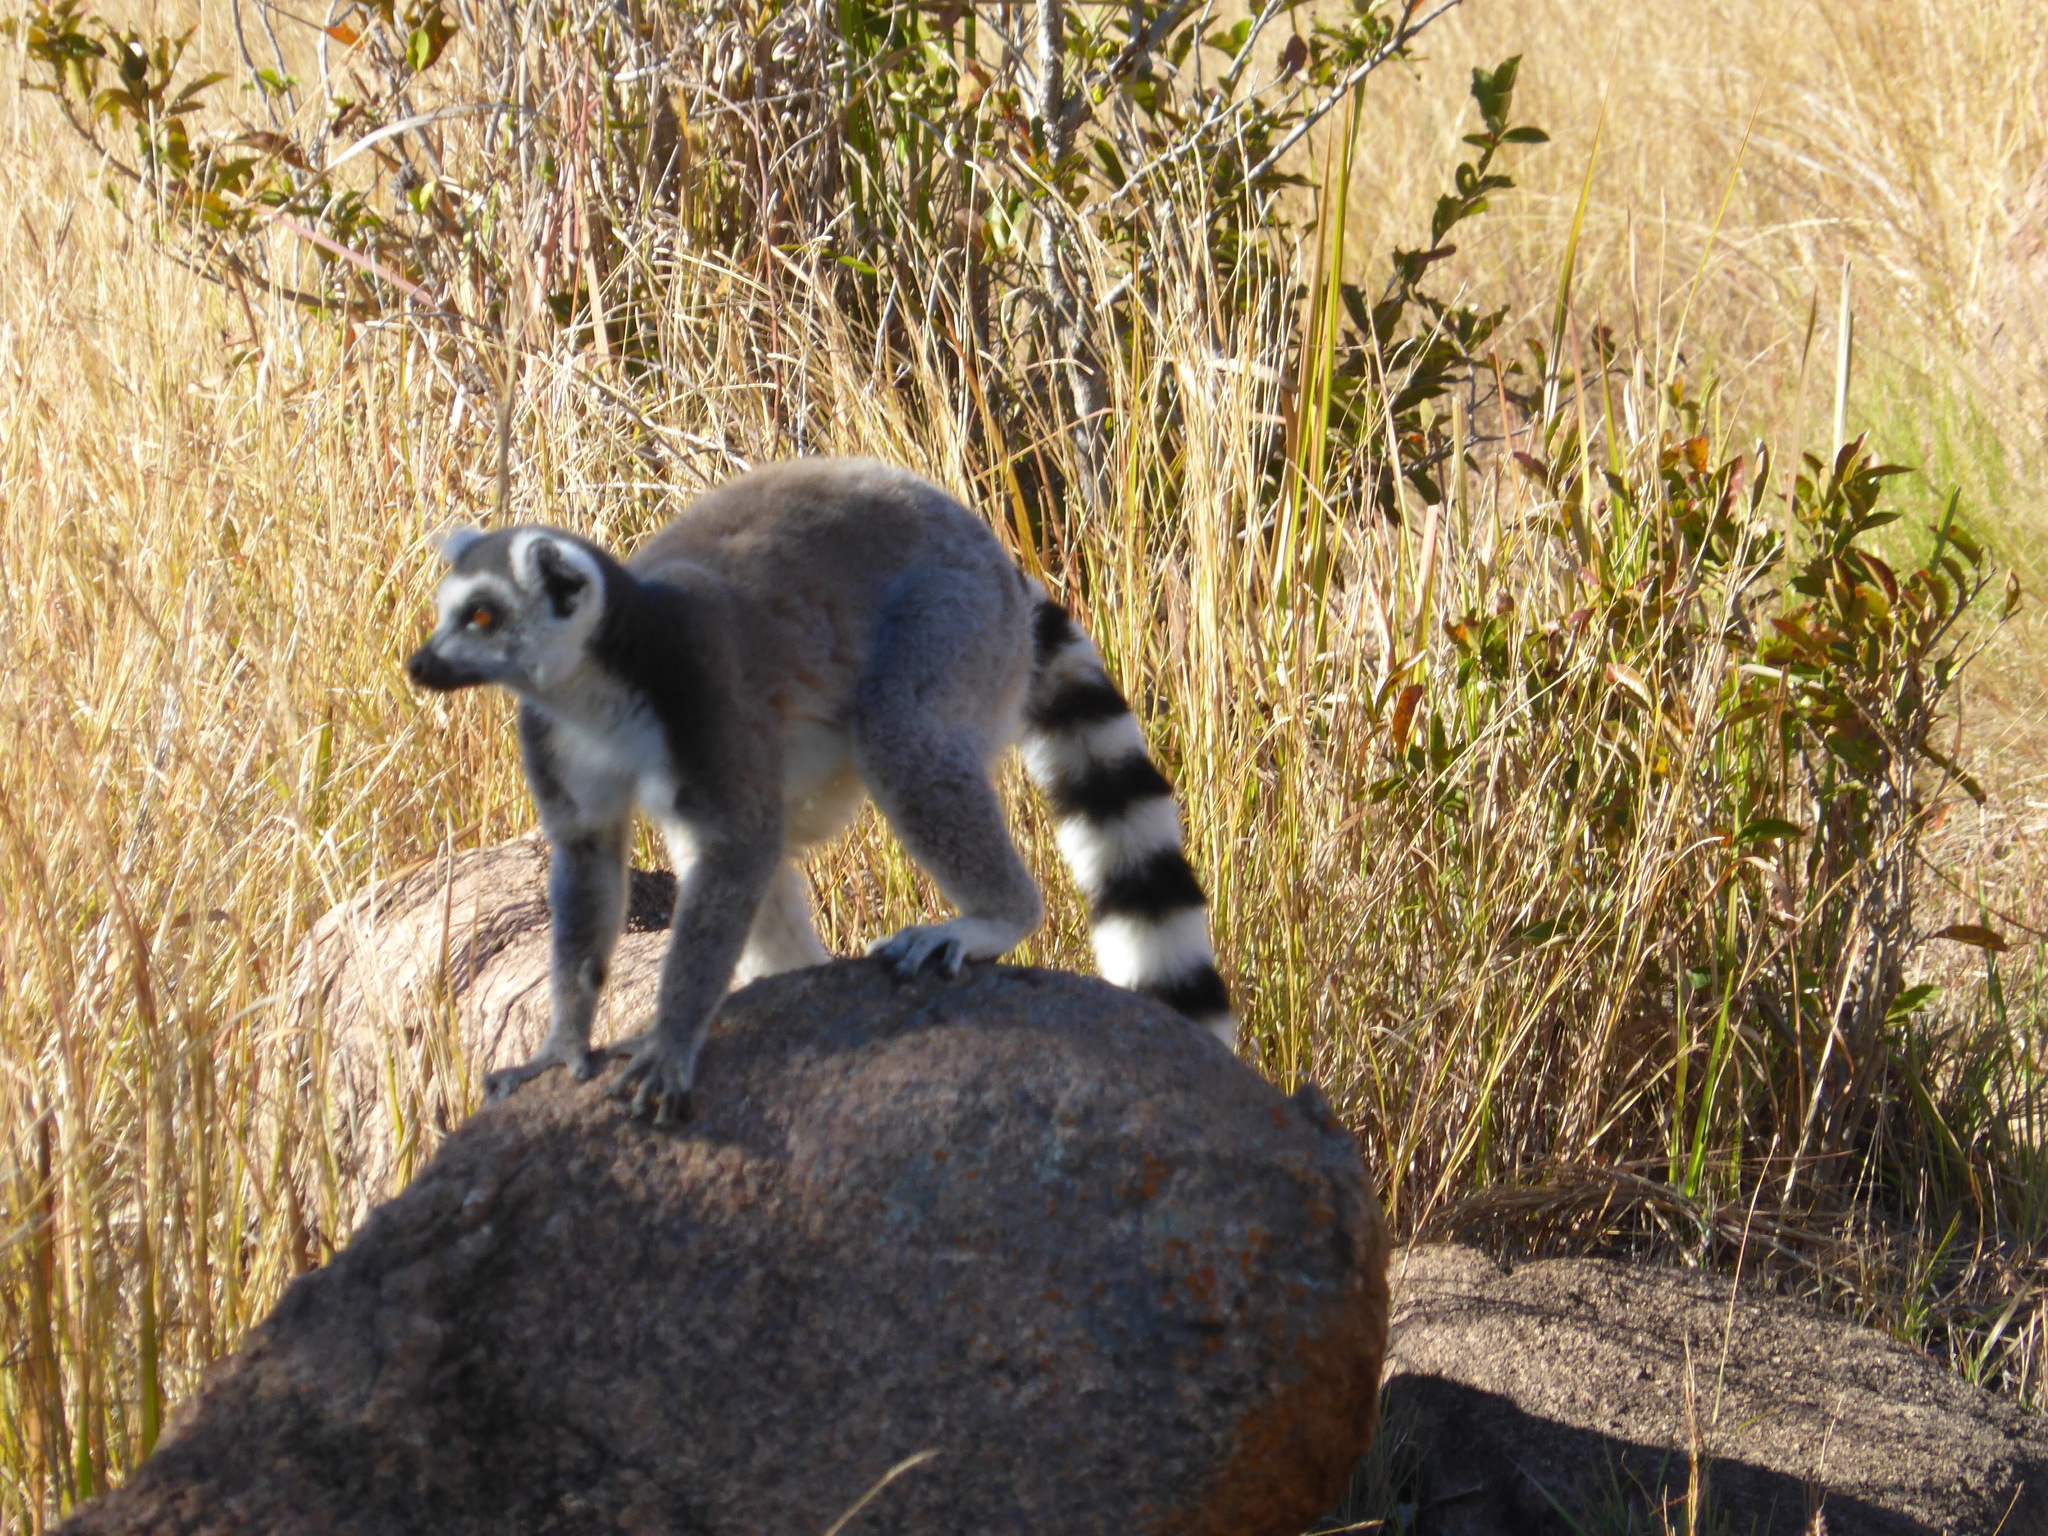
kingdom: Animalia
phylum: Chordata
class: Mammalia
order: Primates
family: Lemuridae
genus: Lemur
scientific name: Lemur catta
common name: Ring-tailed lemur
